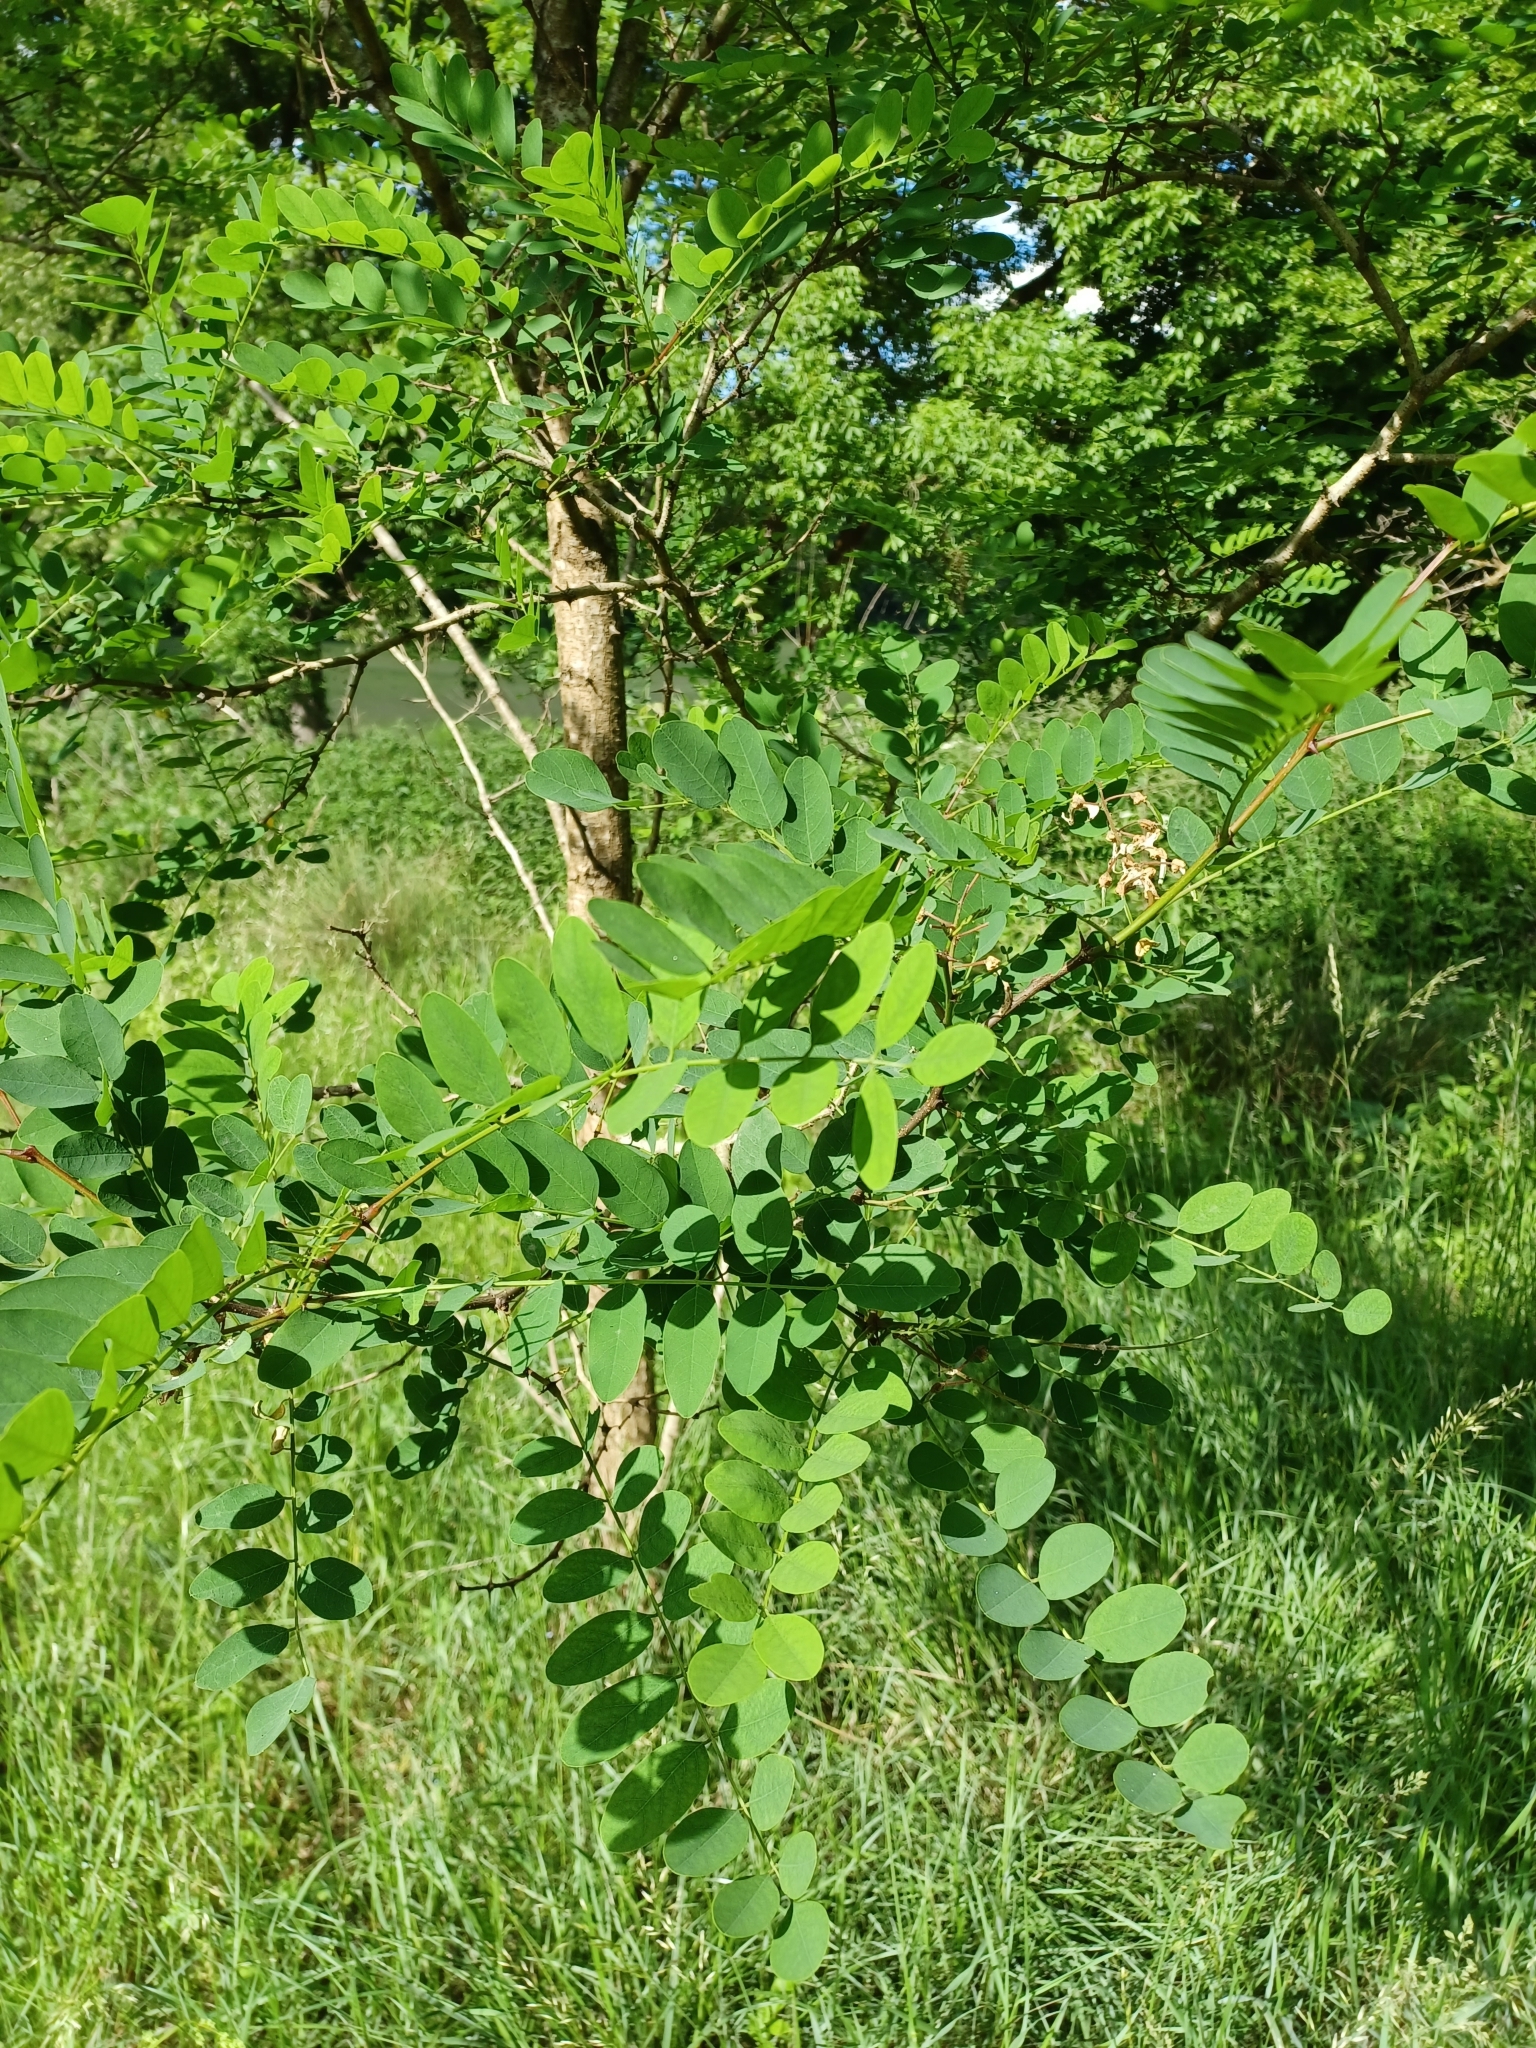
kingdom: Plantae
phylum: Tracheophyta
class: Magnoliopsida
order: Fabales
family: Fabaceae
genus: Robinia
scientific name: Robinia pseudoacacia
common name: Black locust
